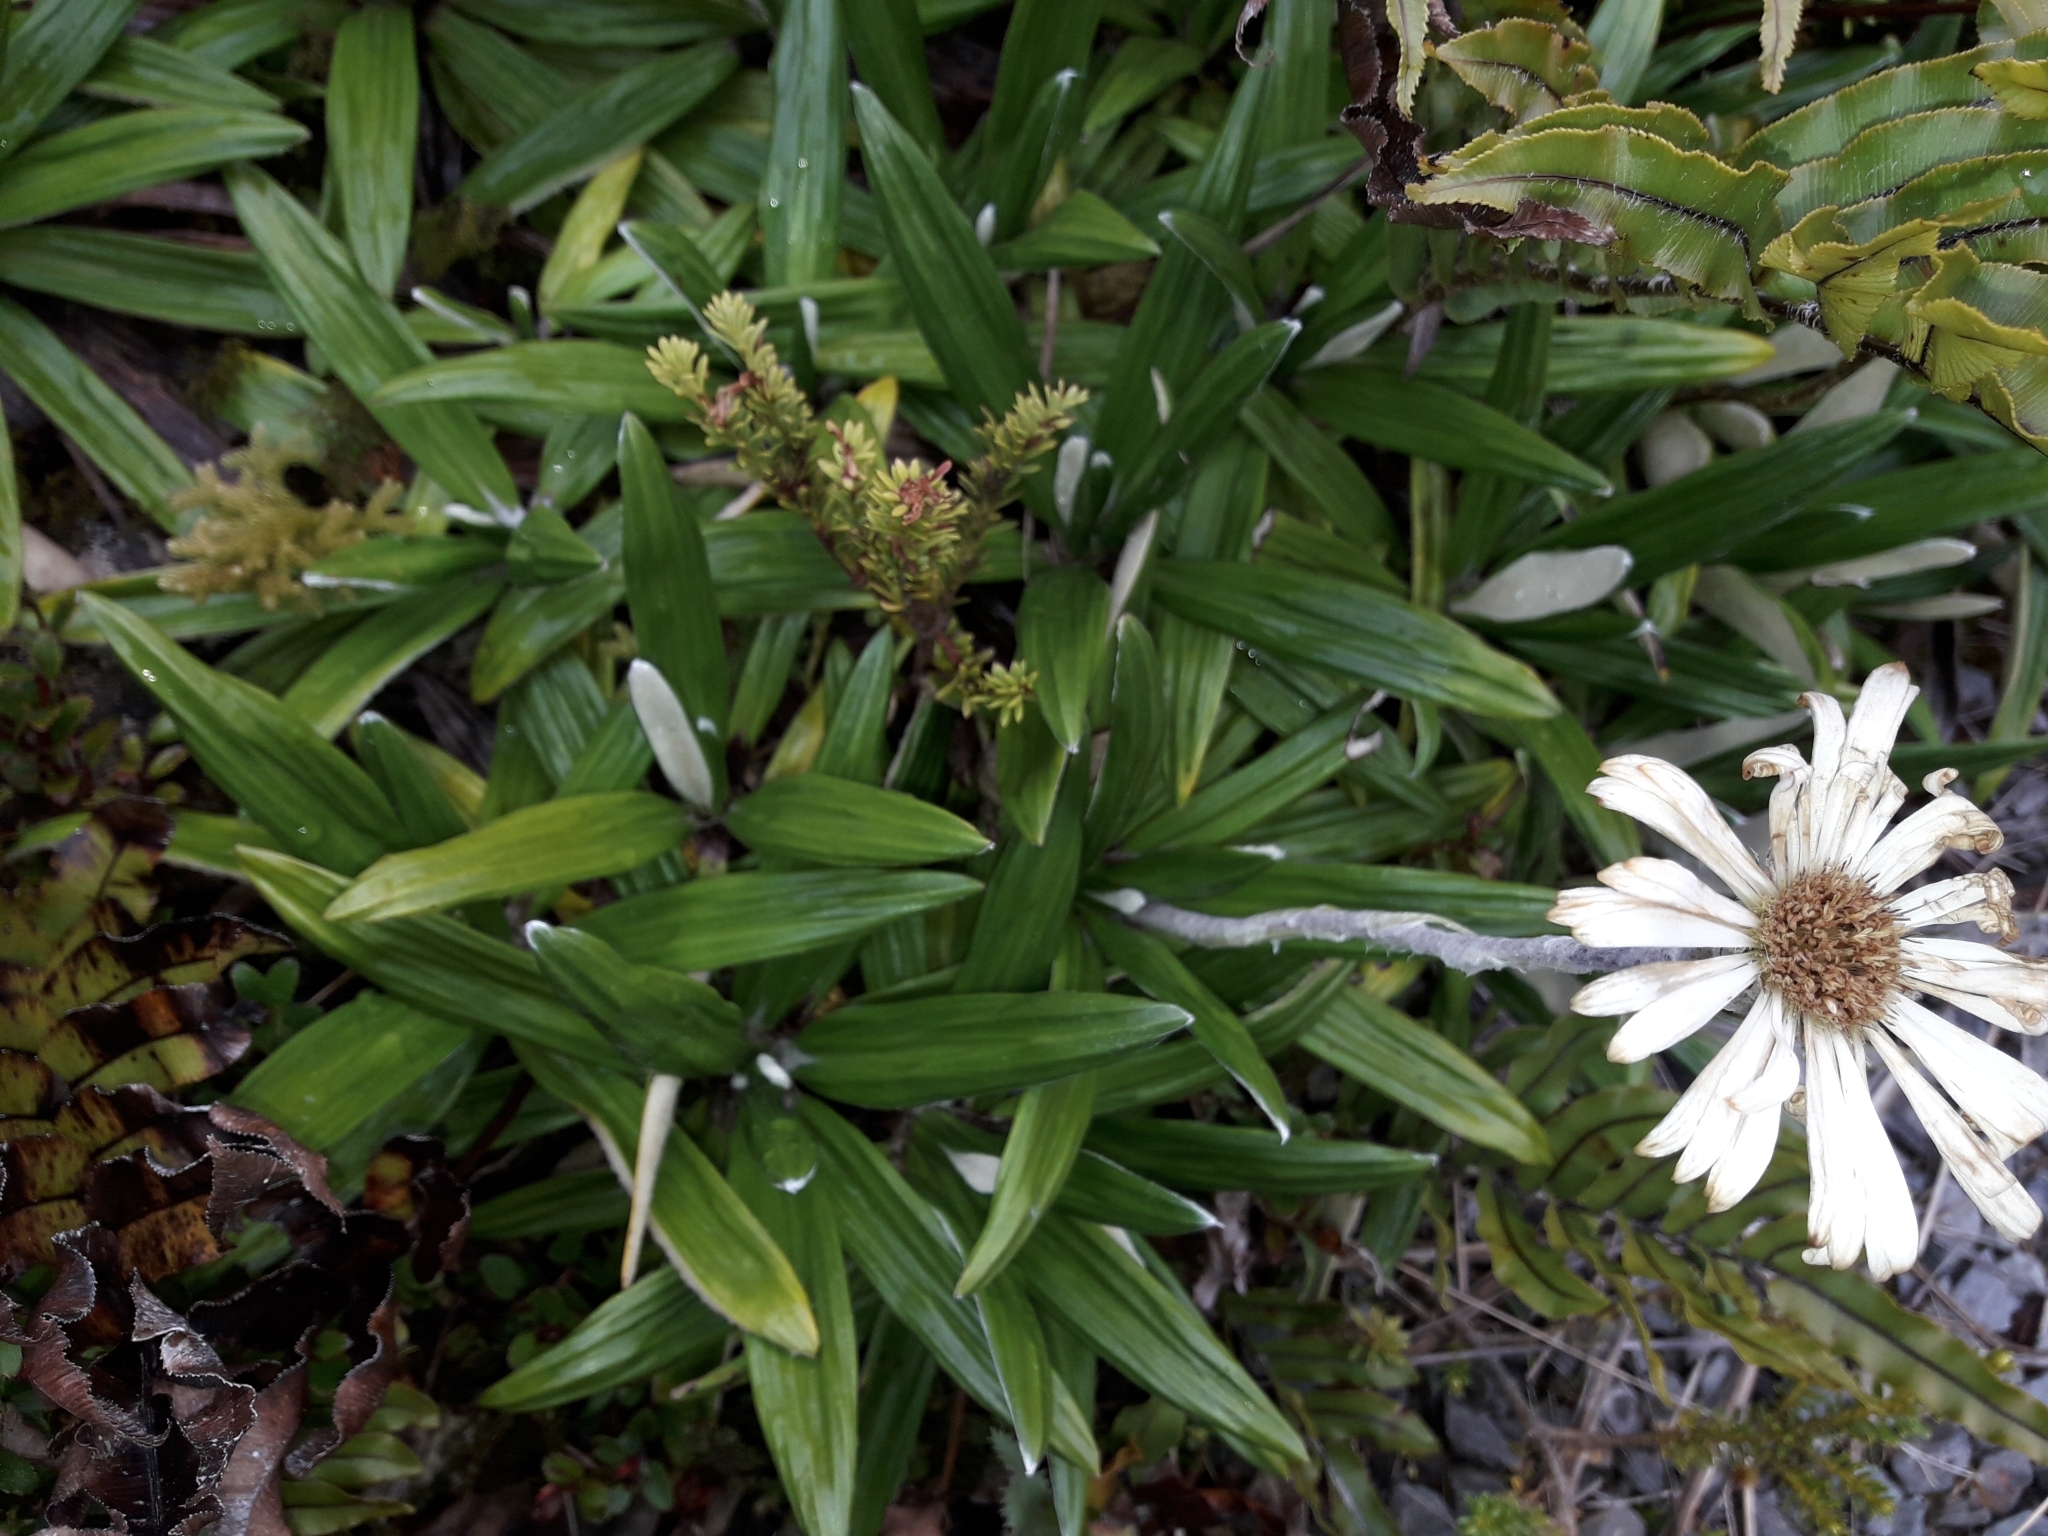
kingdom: Plantae
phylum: Tracheophyta
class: Magnoliopsida
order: Asterales
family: Asteraceae
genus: Celmisia
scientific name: Celmisia spectabilis
